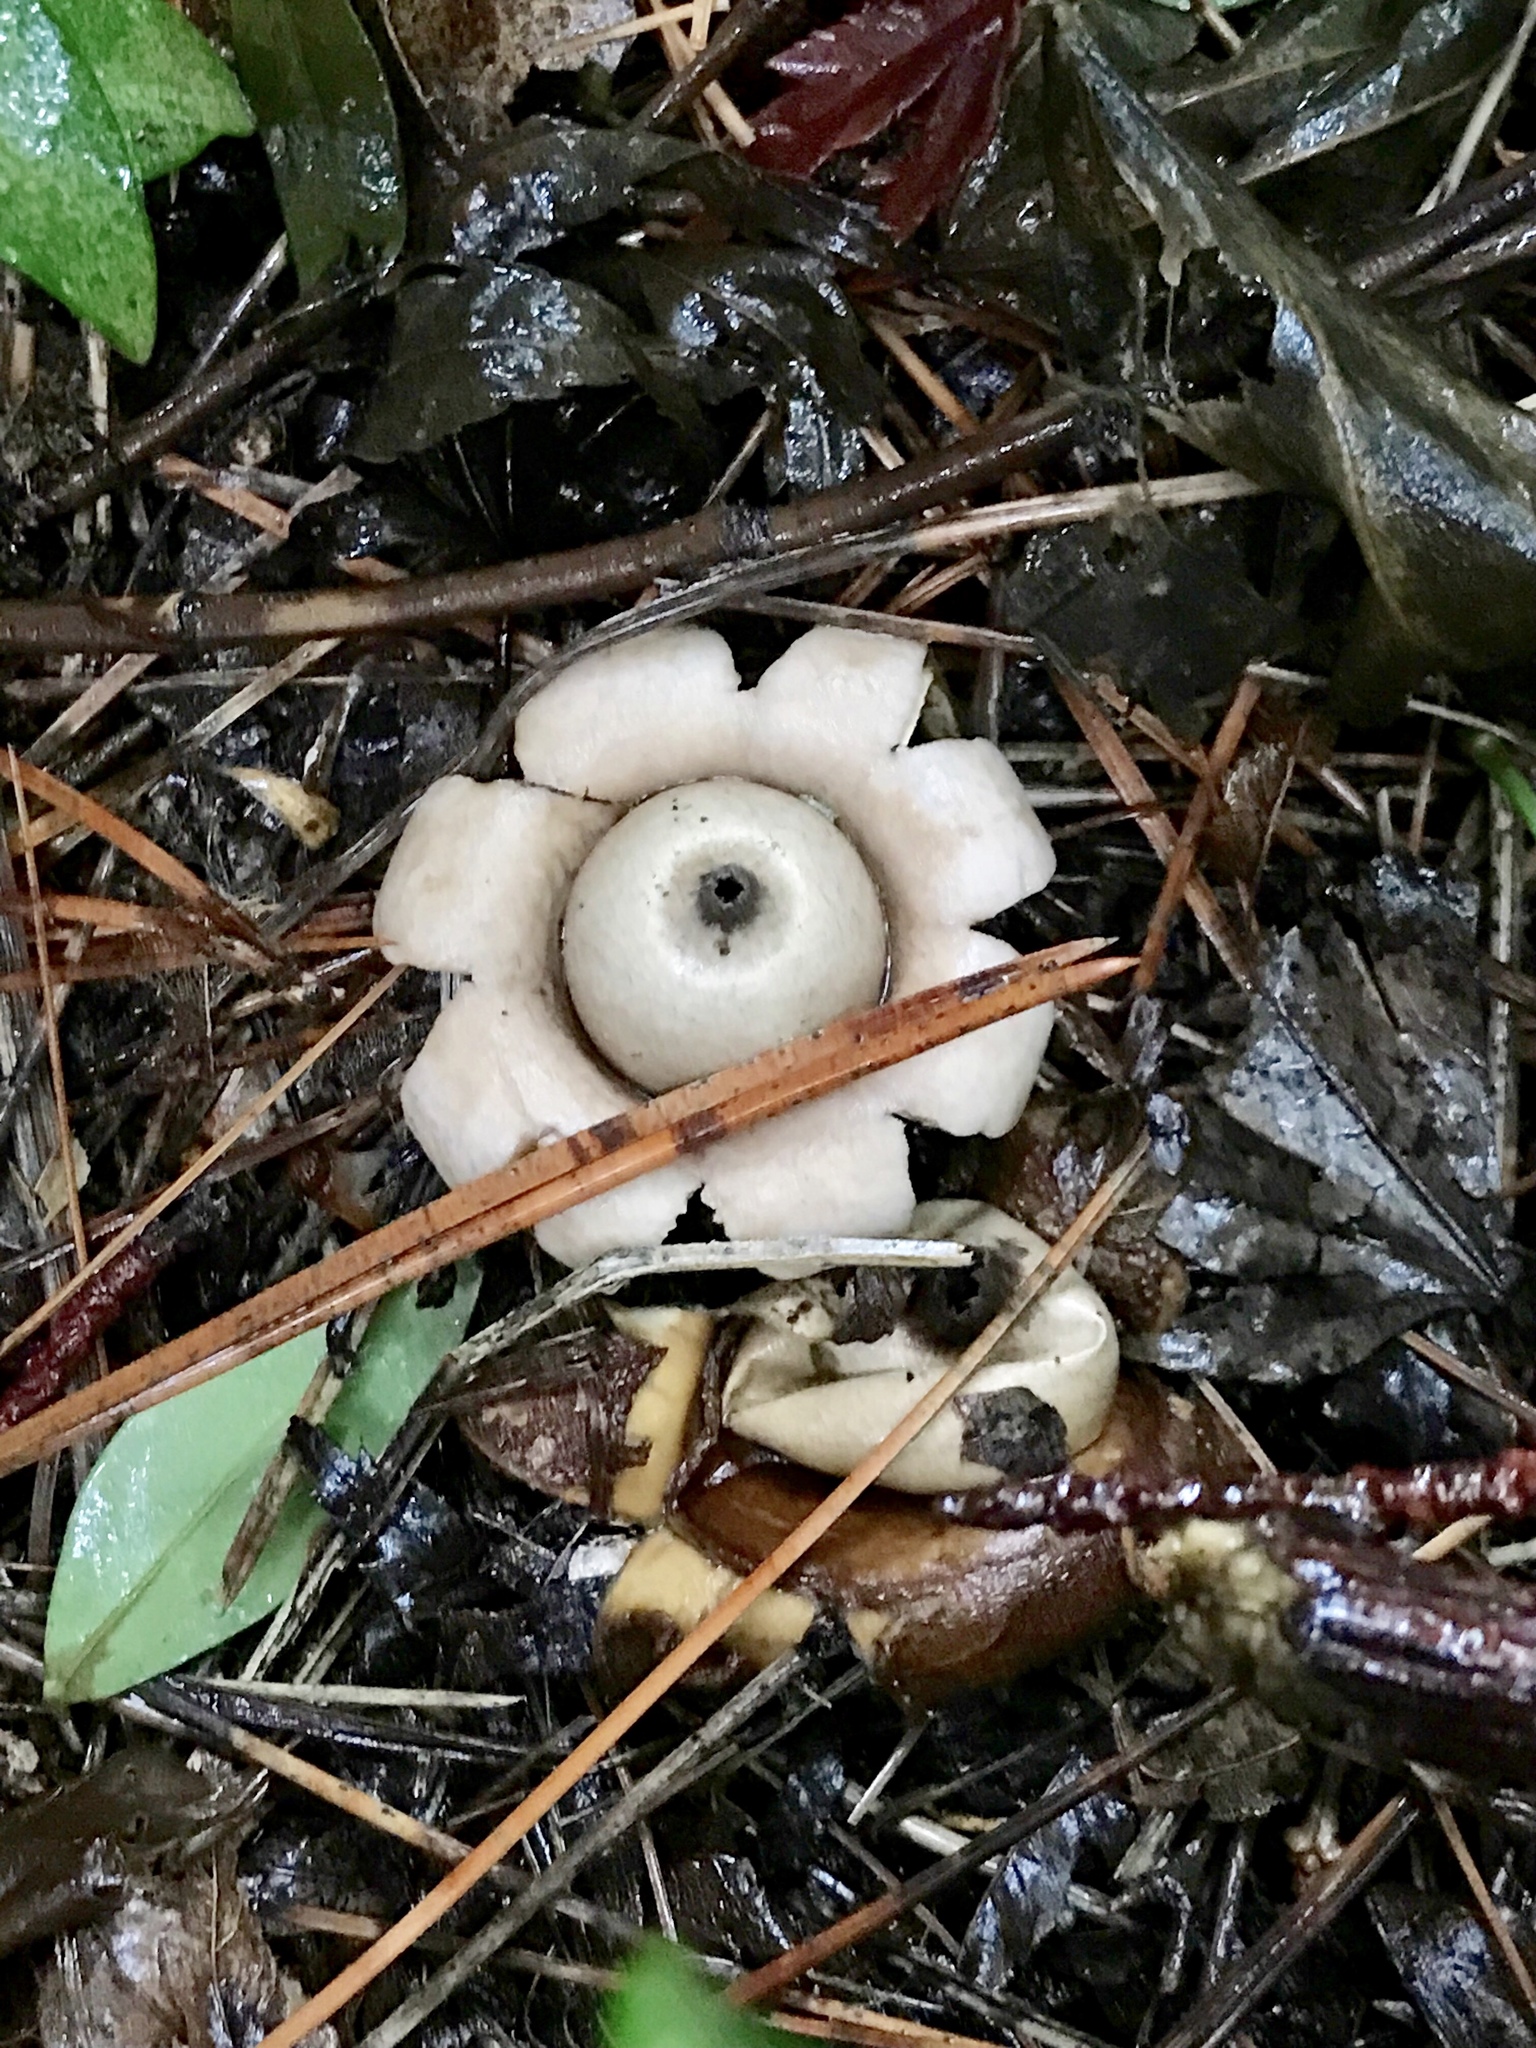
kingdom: Fungi
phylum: Basidiomycota
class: Agaricomycetes
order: Geastrales
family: Geastraceae
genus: Geastrum
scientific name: Geastrum saccatum
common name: Rounded earthstar
